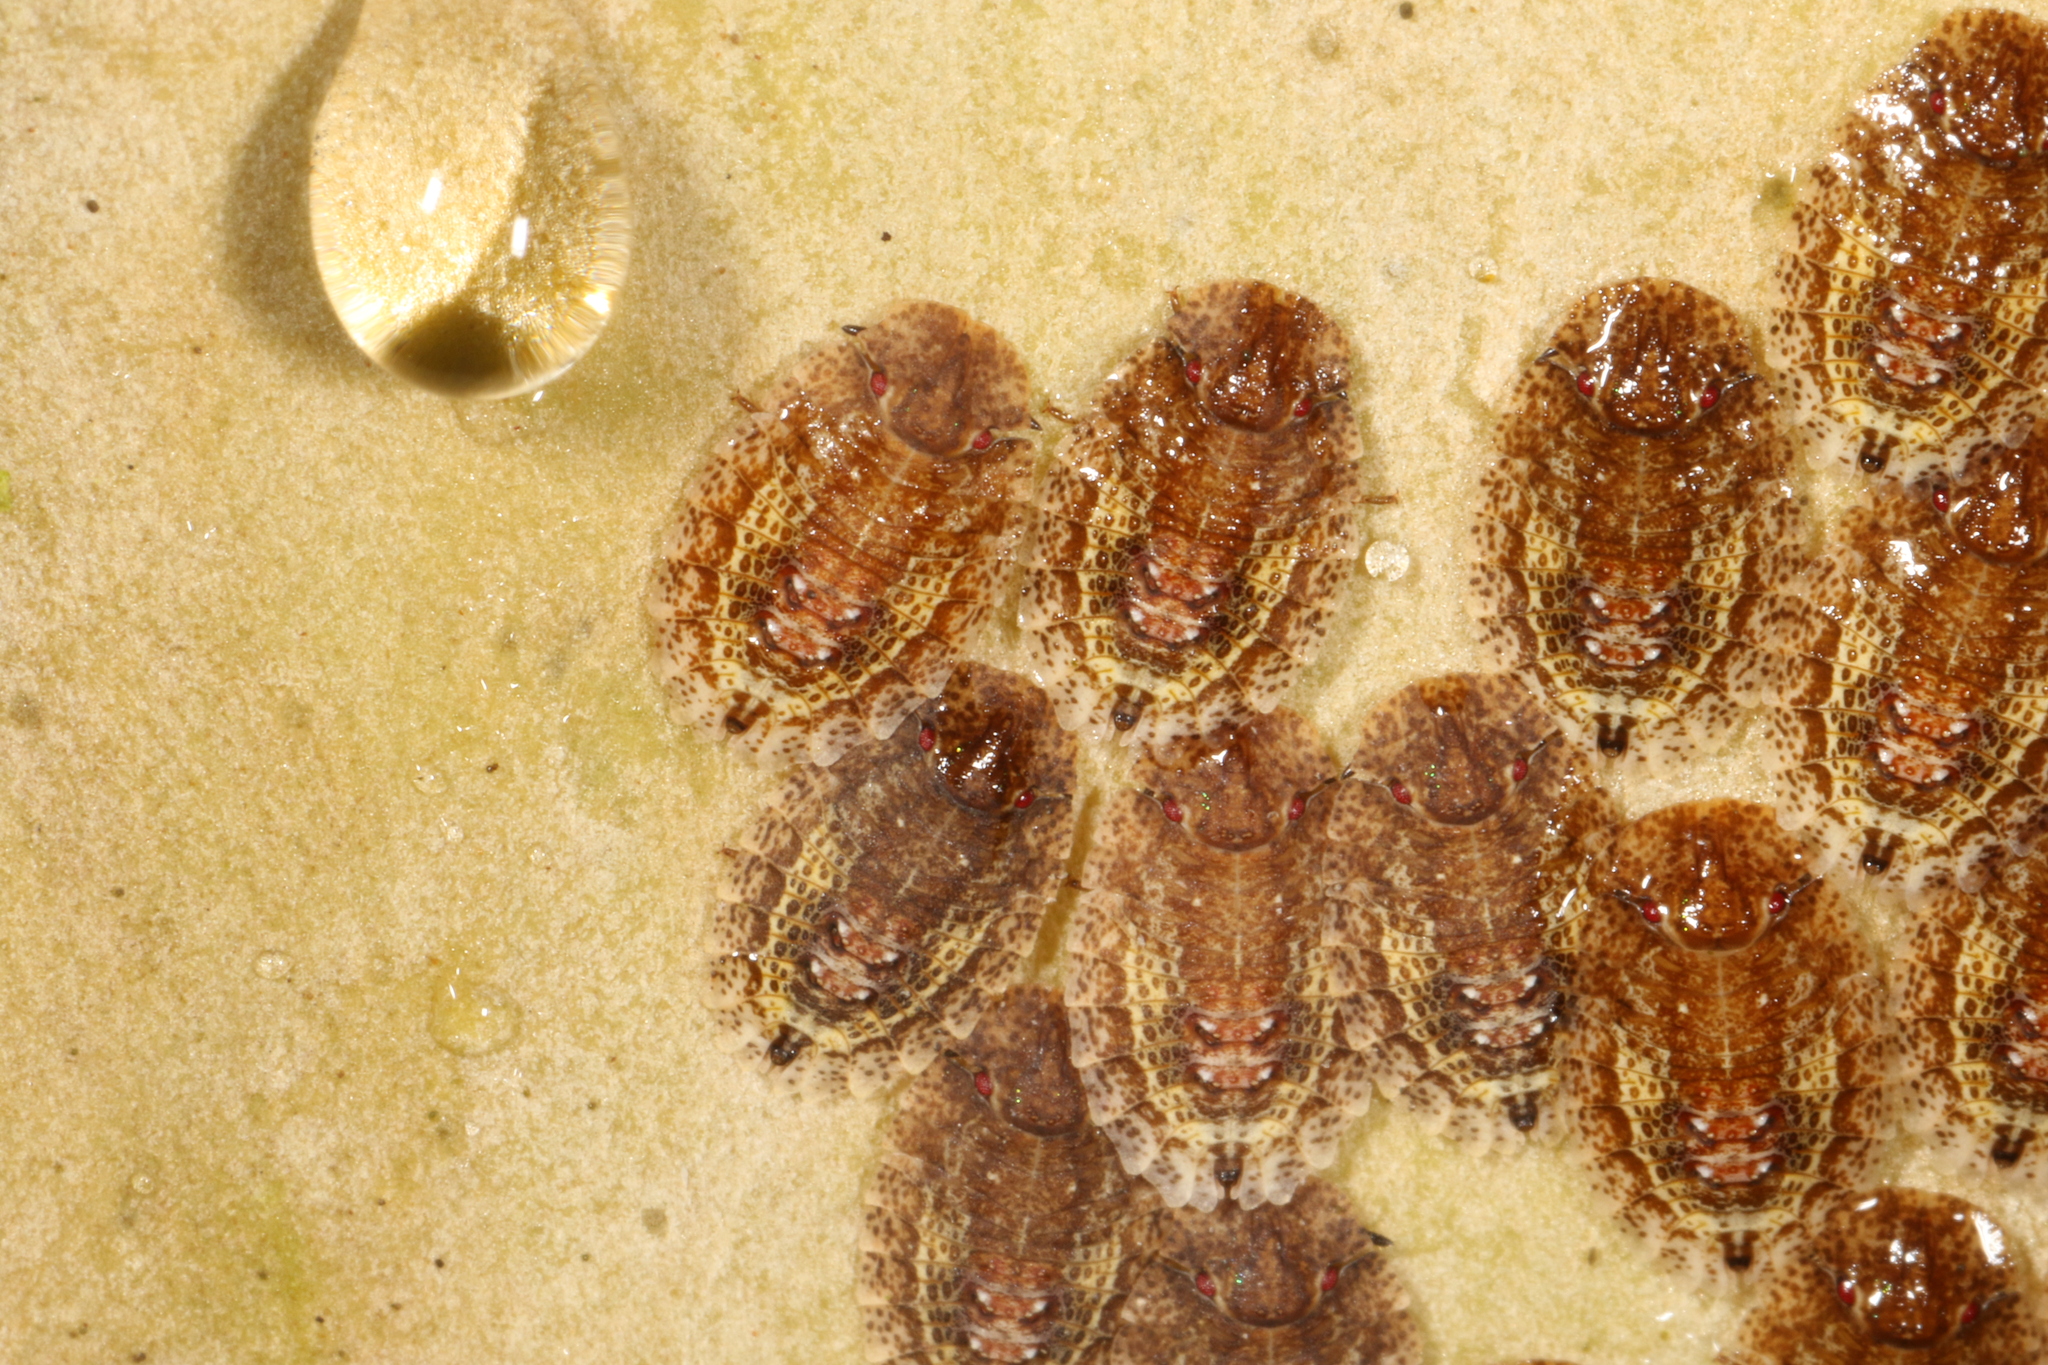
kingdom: Animalia
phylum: Arthropoda
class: Insecta
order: Hemiptera
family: Phleides
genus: Phloea
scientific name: Phloea
